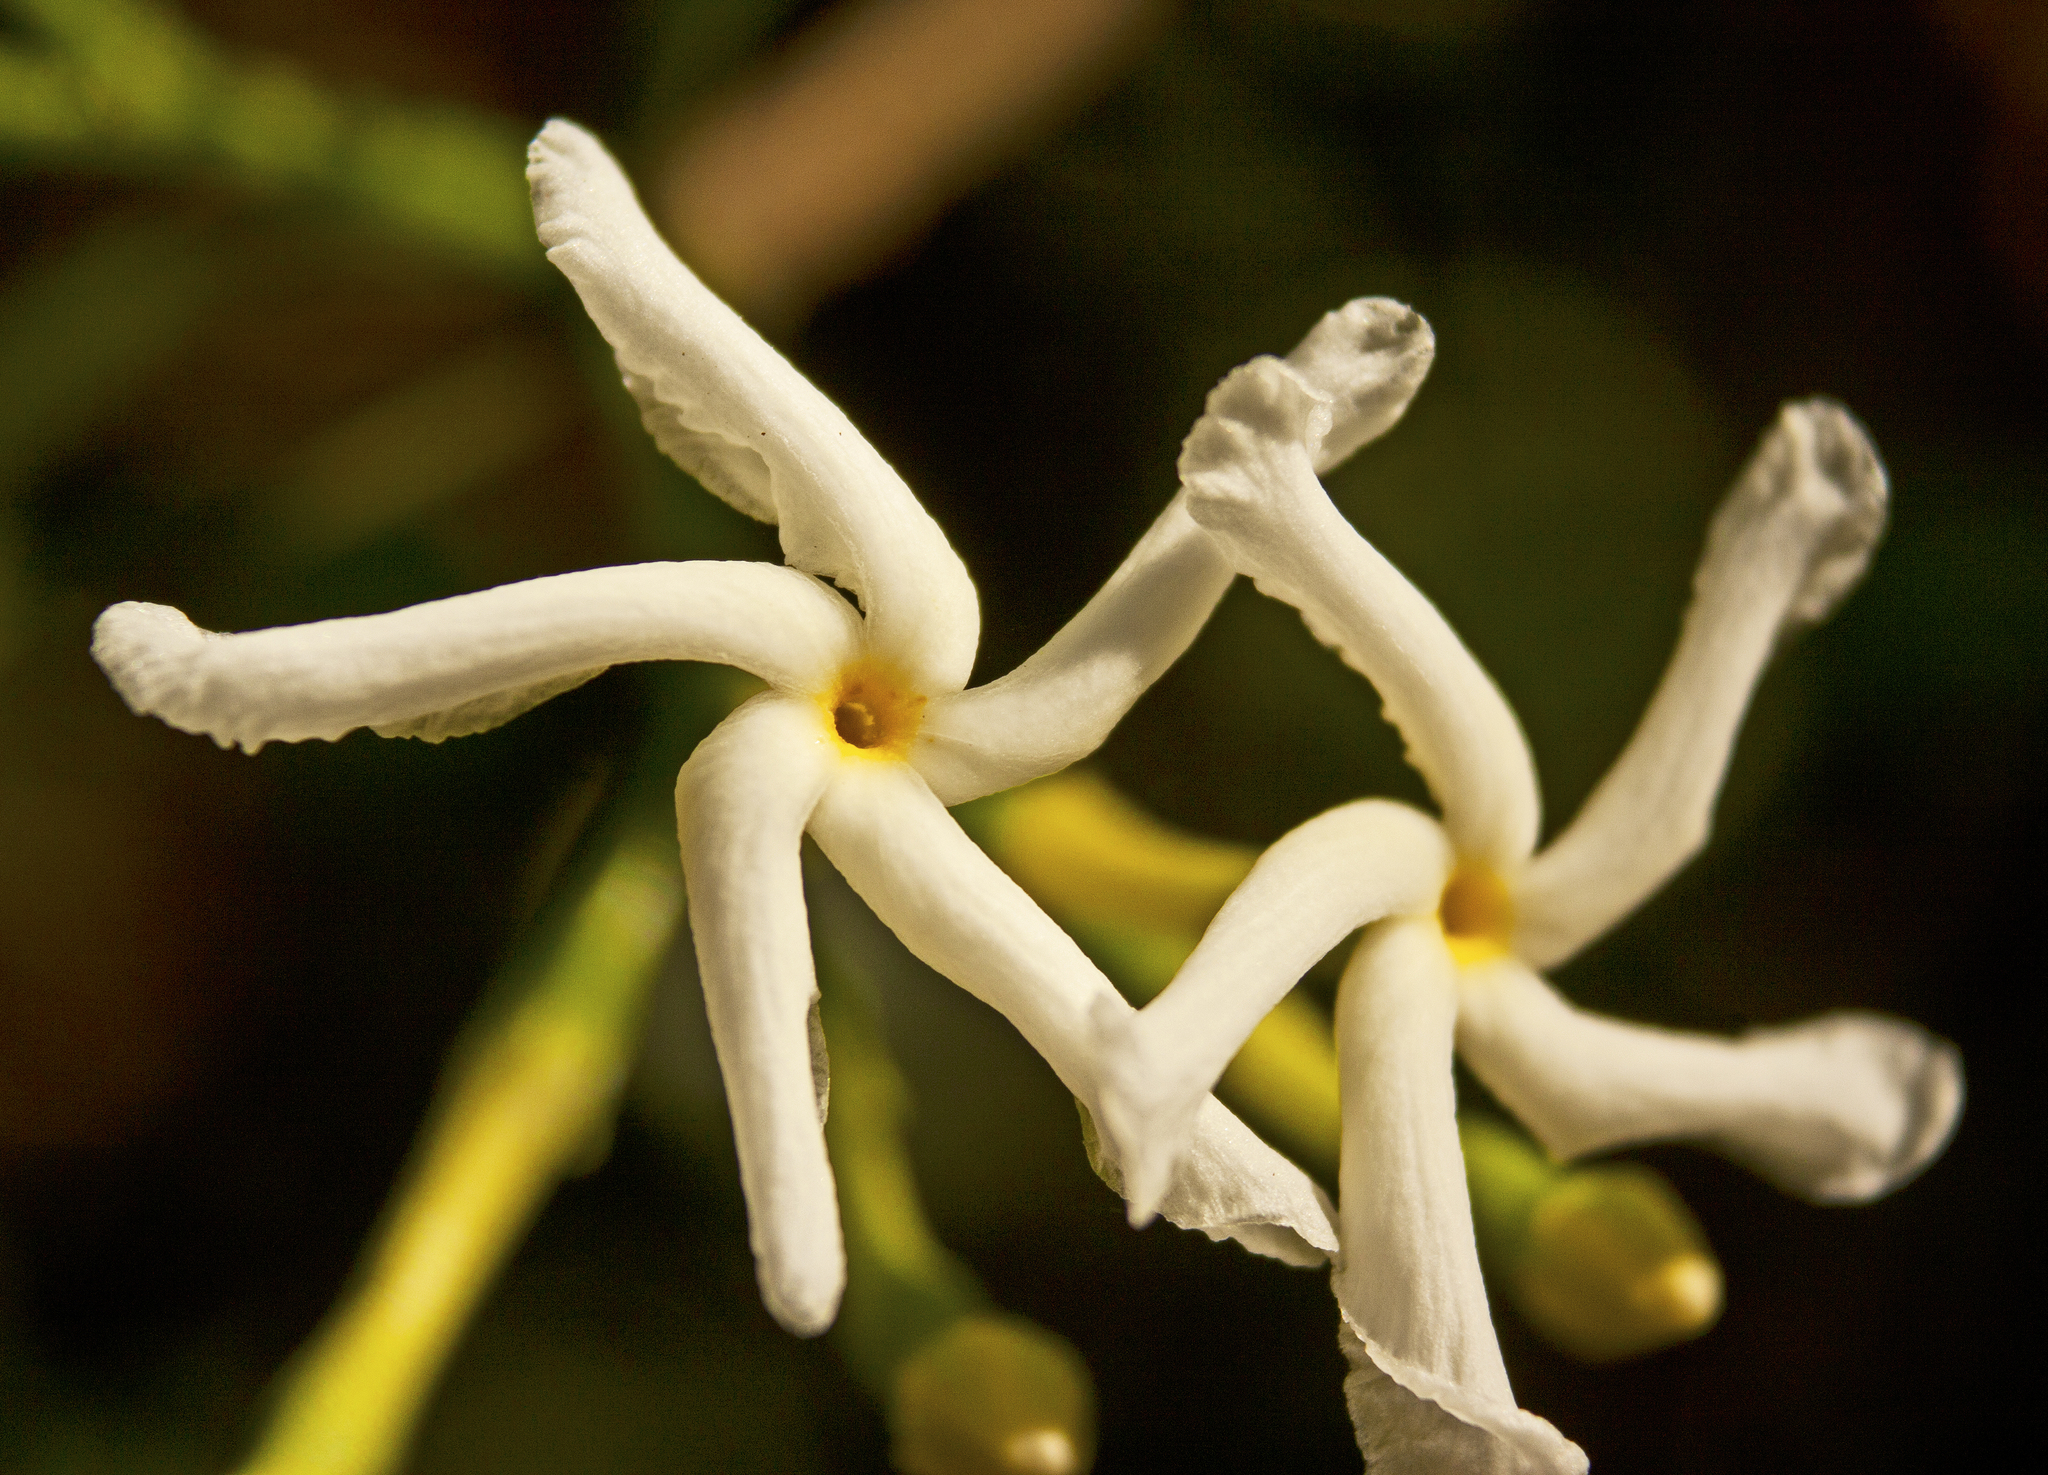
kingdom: Plantae
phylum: Tracheophyta
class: Magnoliopsida
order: Gentianales
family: Apocynaceae
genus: Tabernaemontana
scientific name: Tabernaemontana pandacaqui
